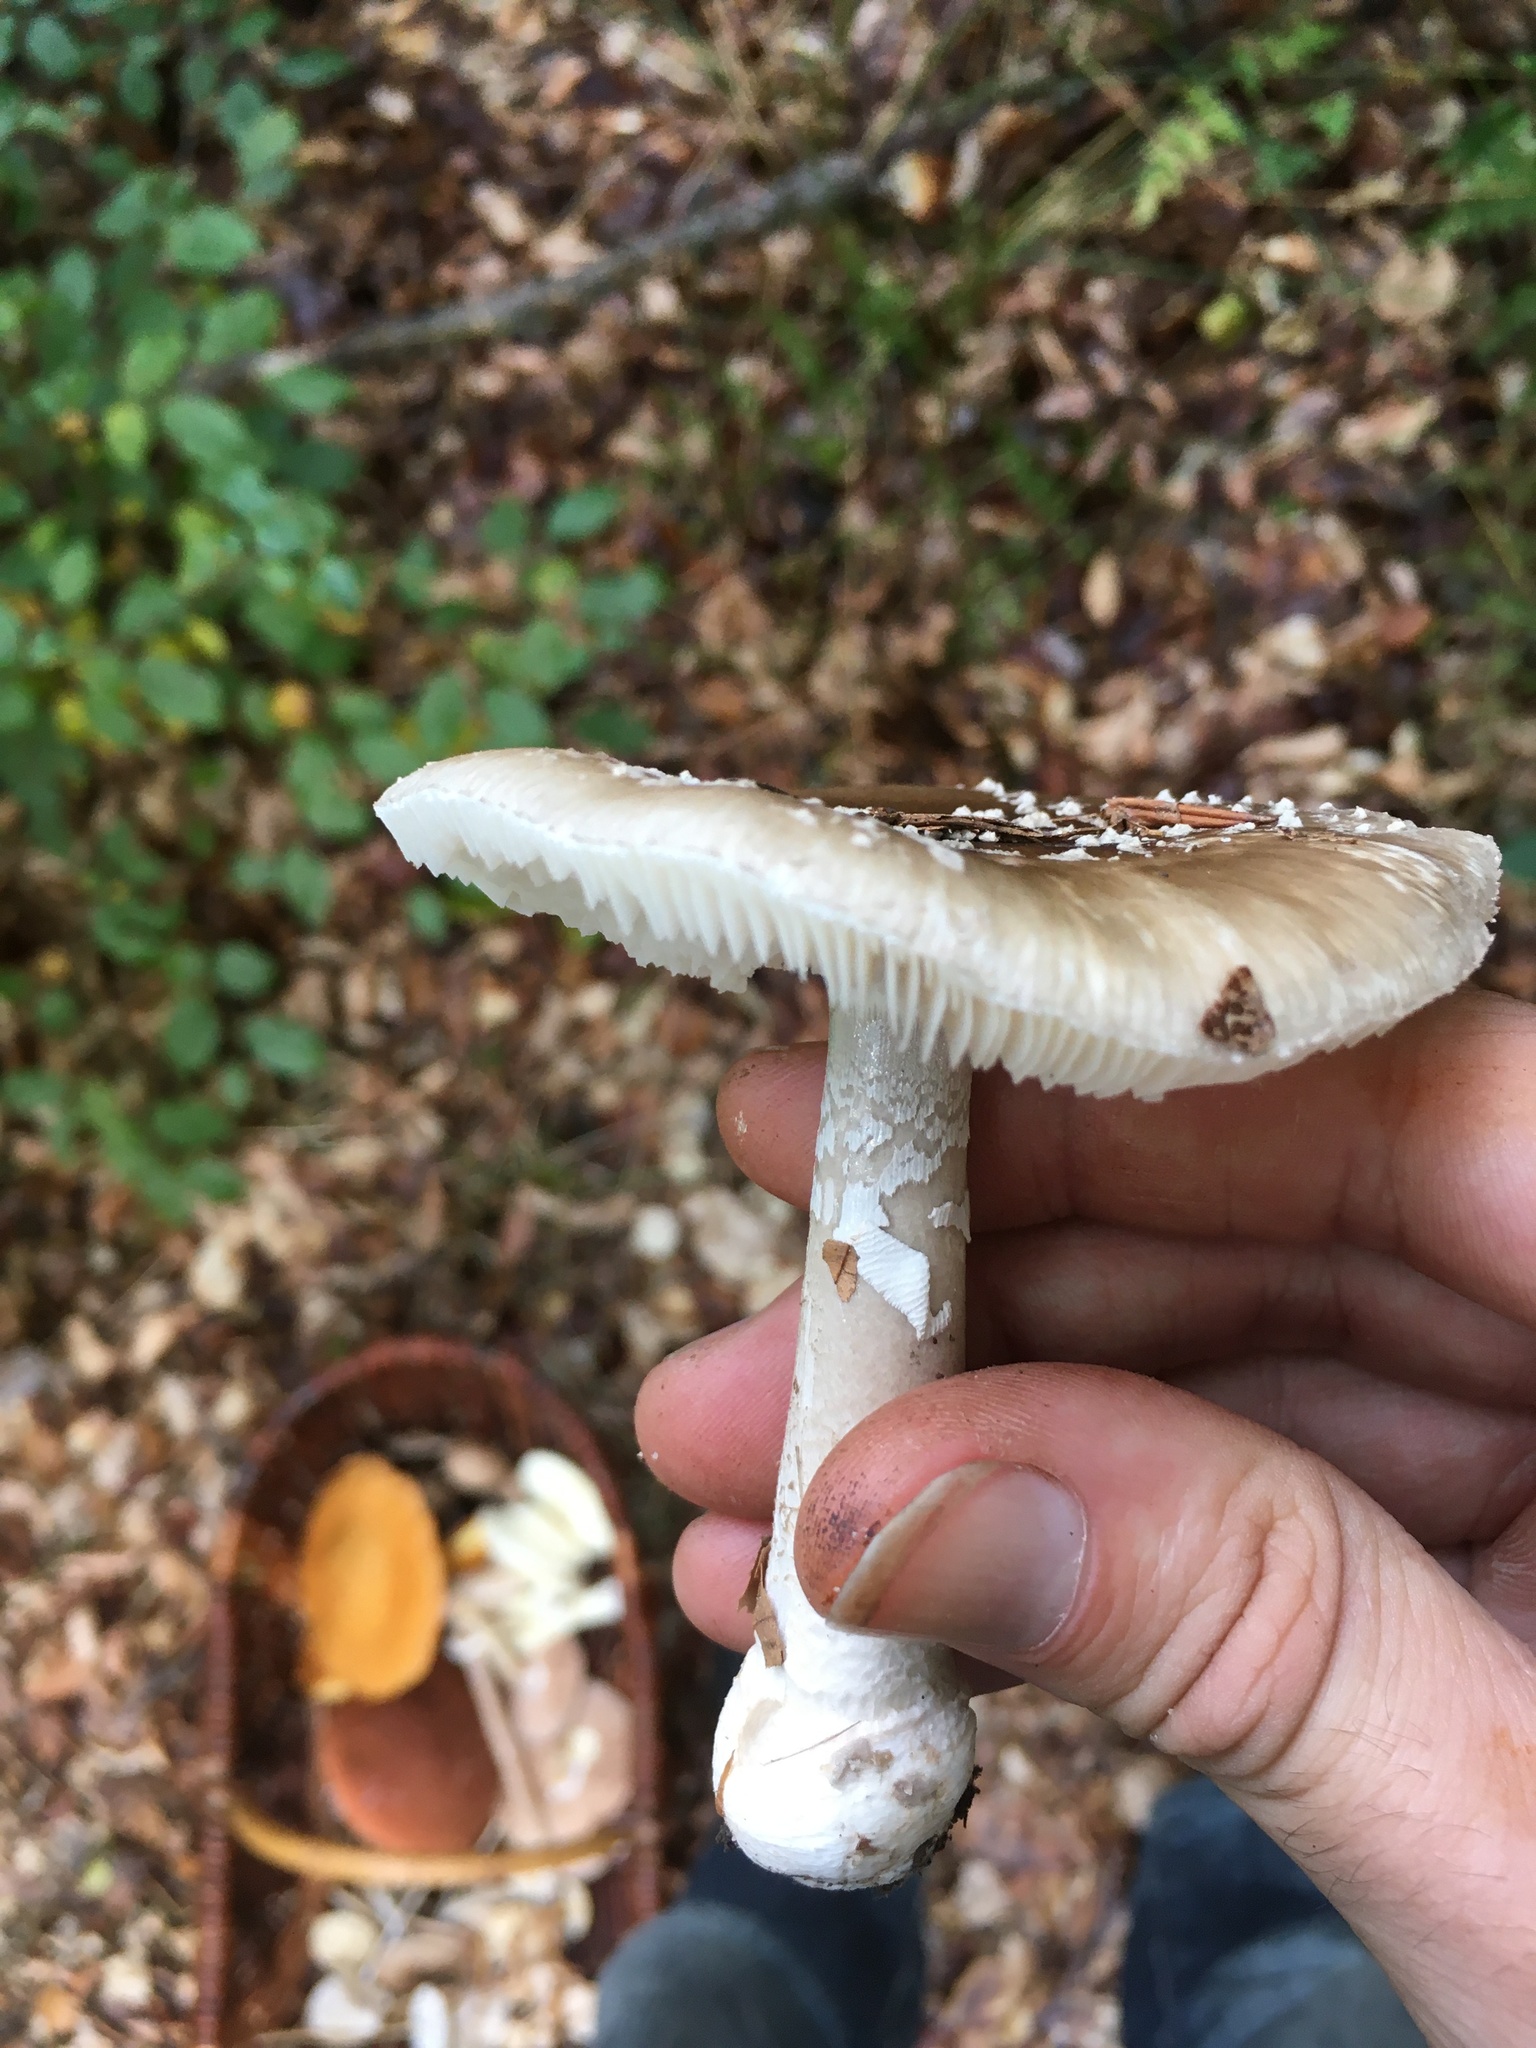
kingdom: Fungi
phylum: Basidiomycota
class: Agaricomycetes
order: Agaricales
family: Amanitaceae
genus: Amanita
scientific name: Amanita excelsa
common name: European false blusher
